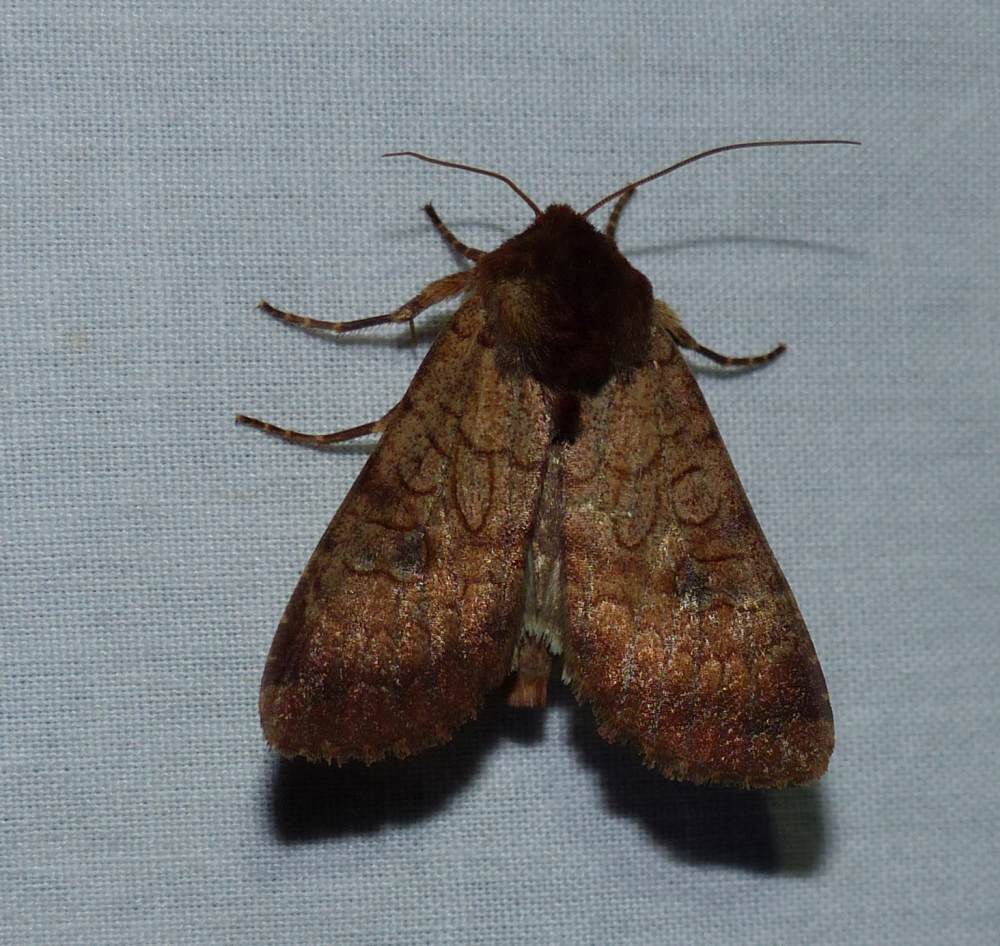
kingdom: Animalia
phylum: Arthropoda
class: Insecta
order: Lepidoptera
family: Noctuidae
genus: Sideridis
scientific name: Sideridis rosea
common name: Rosewing moth
